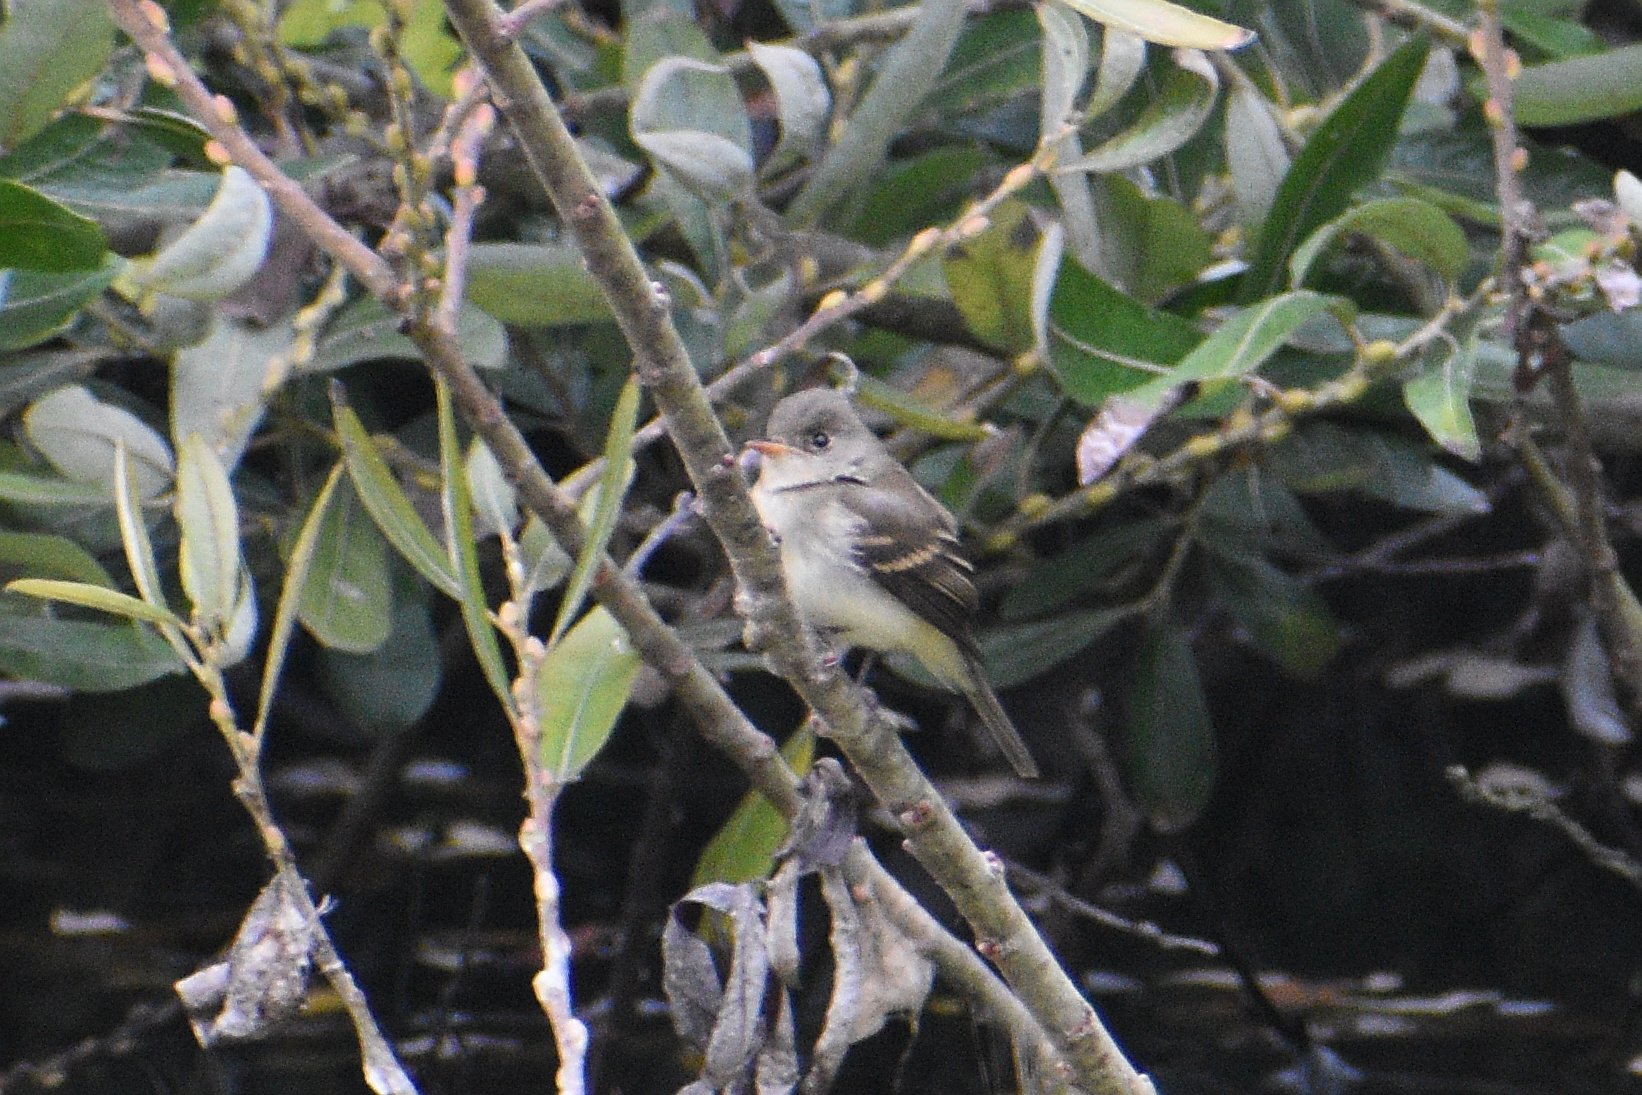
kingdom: Animalia
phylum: Chordata
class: Aves
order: Passeriformes
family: Tyrannidae
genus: Empidonax
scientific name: Empidonax traillii
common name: Willow flycatcher
